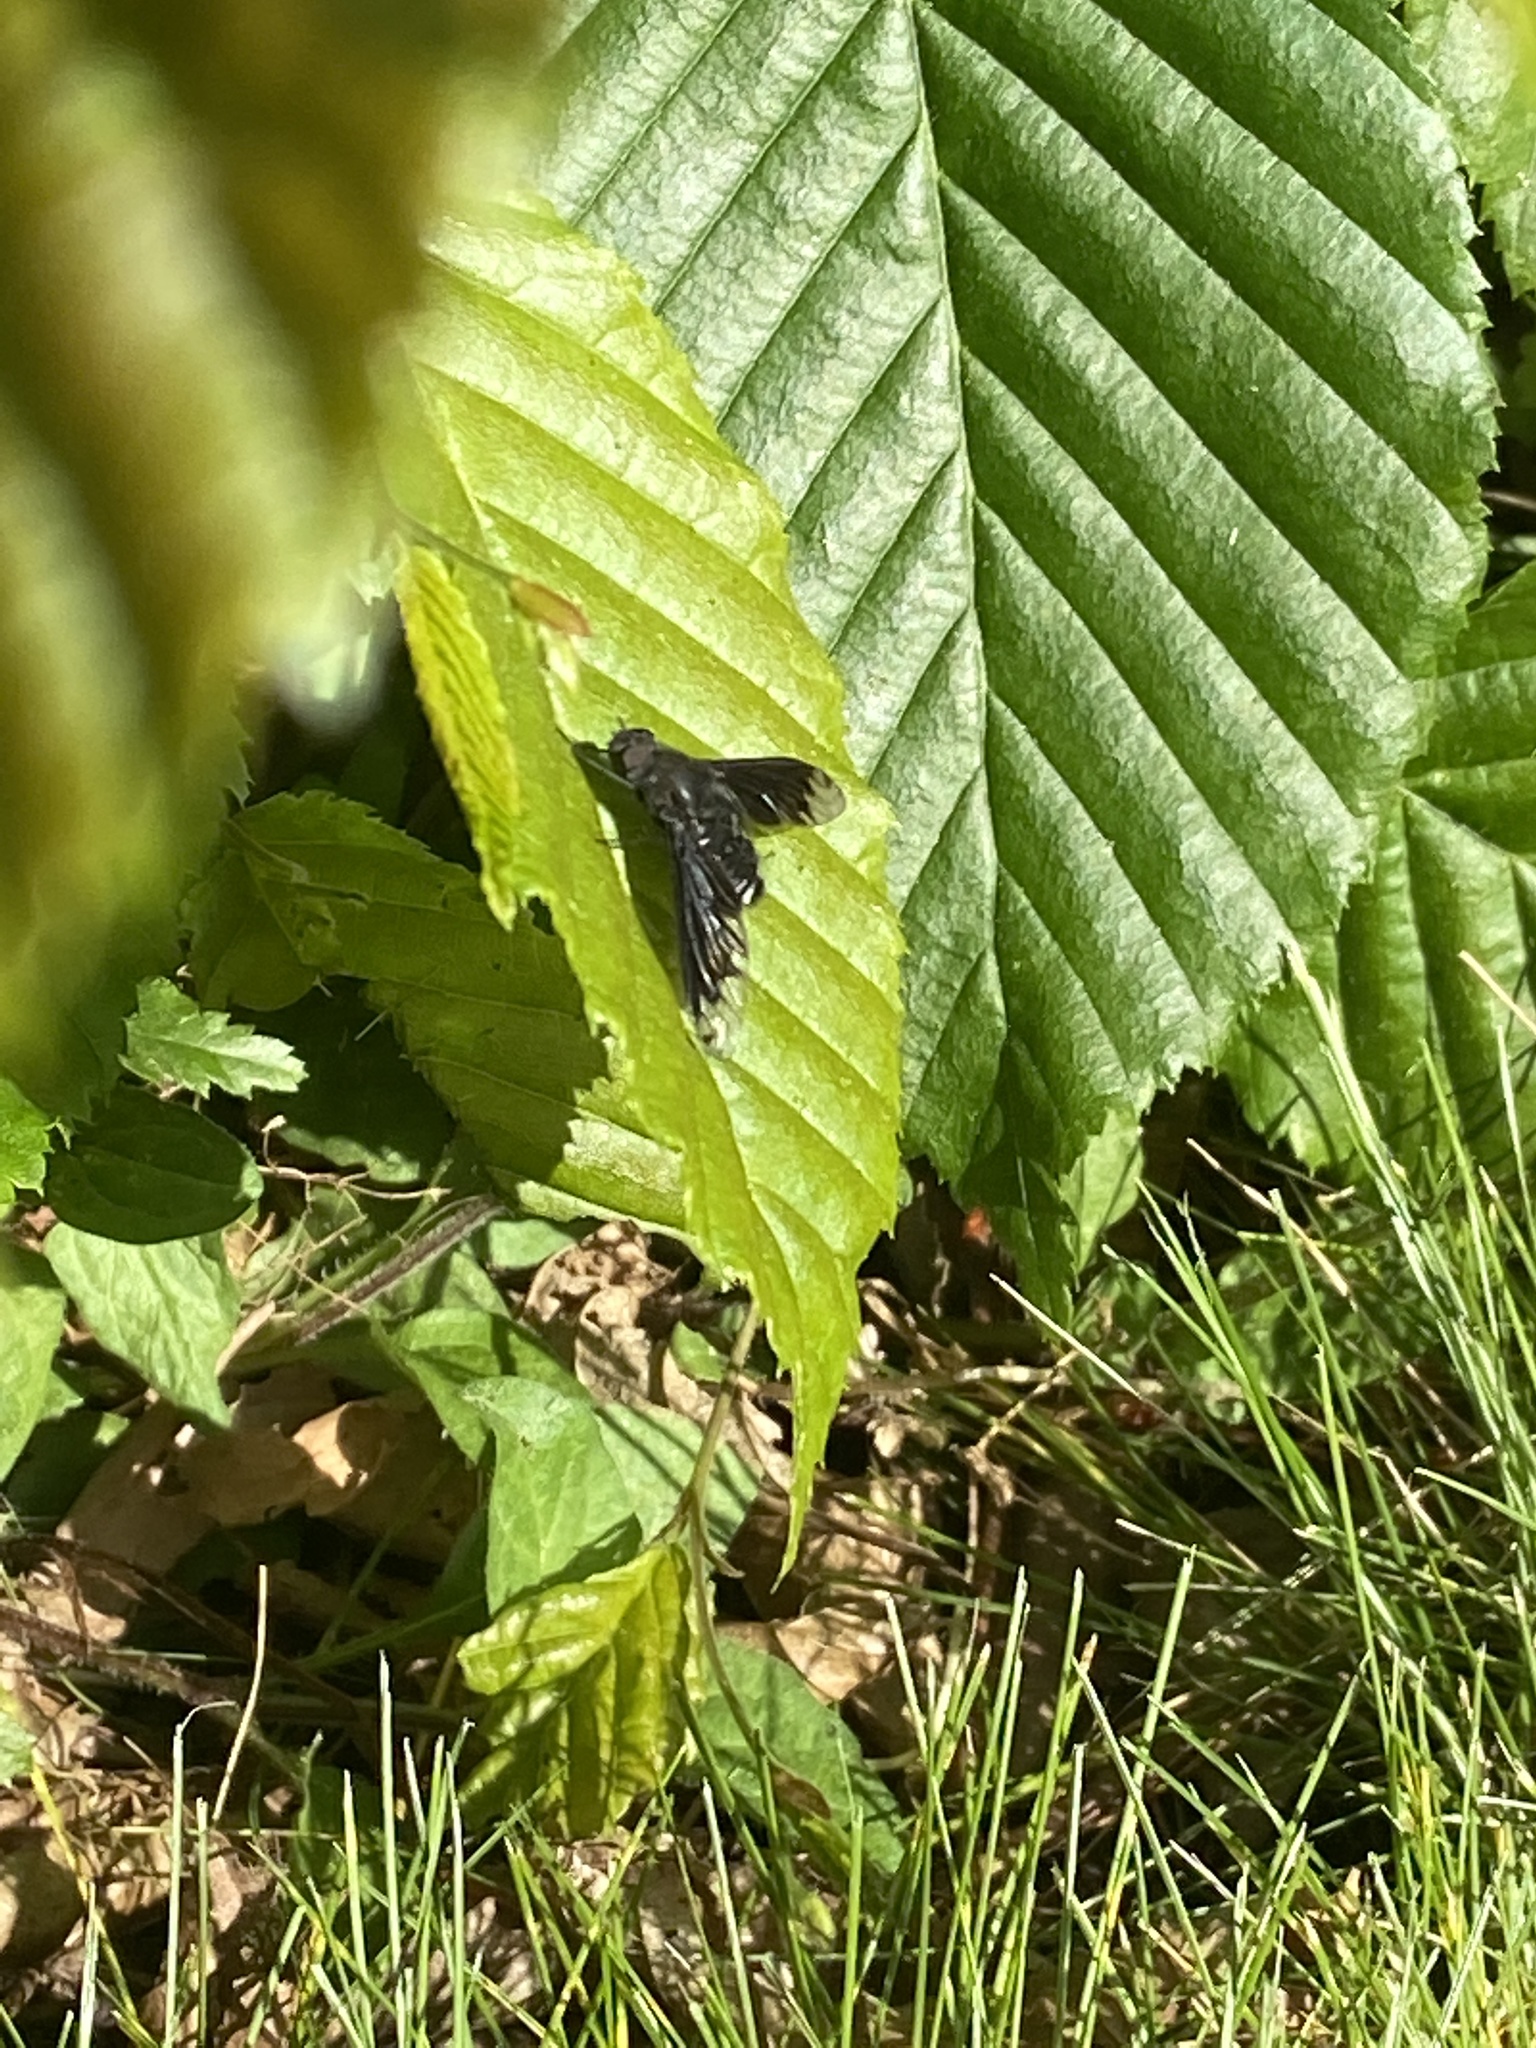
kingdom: Animalia
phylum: Arthropoda
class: Insecta
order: Diptera
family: Bombyliidae
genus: Anthrax
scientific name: Anthrax anthrax
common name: Anthracite bee-fly
